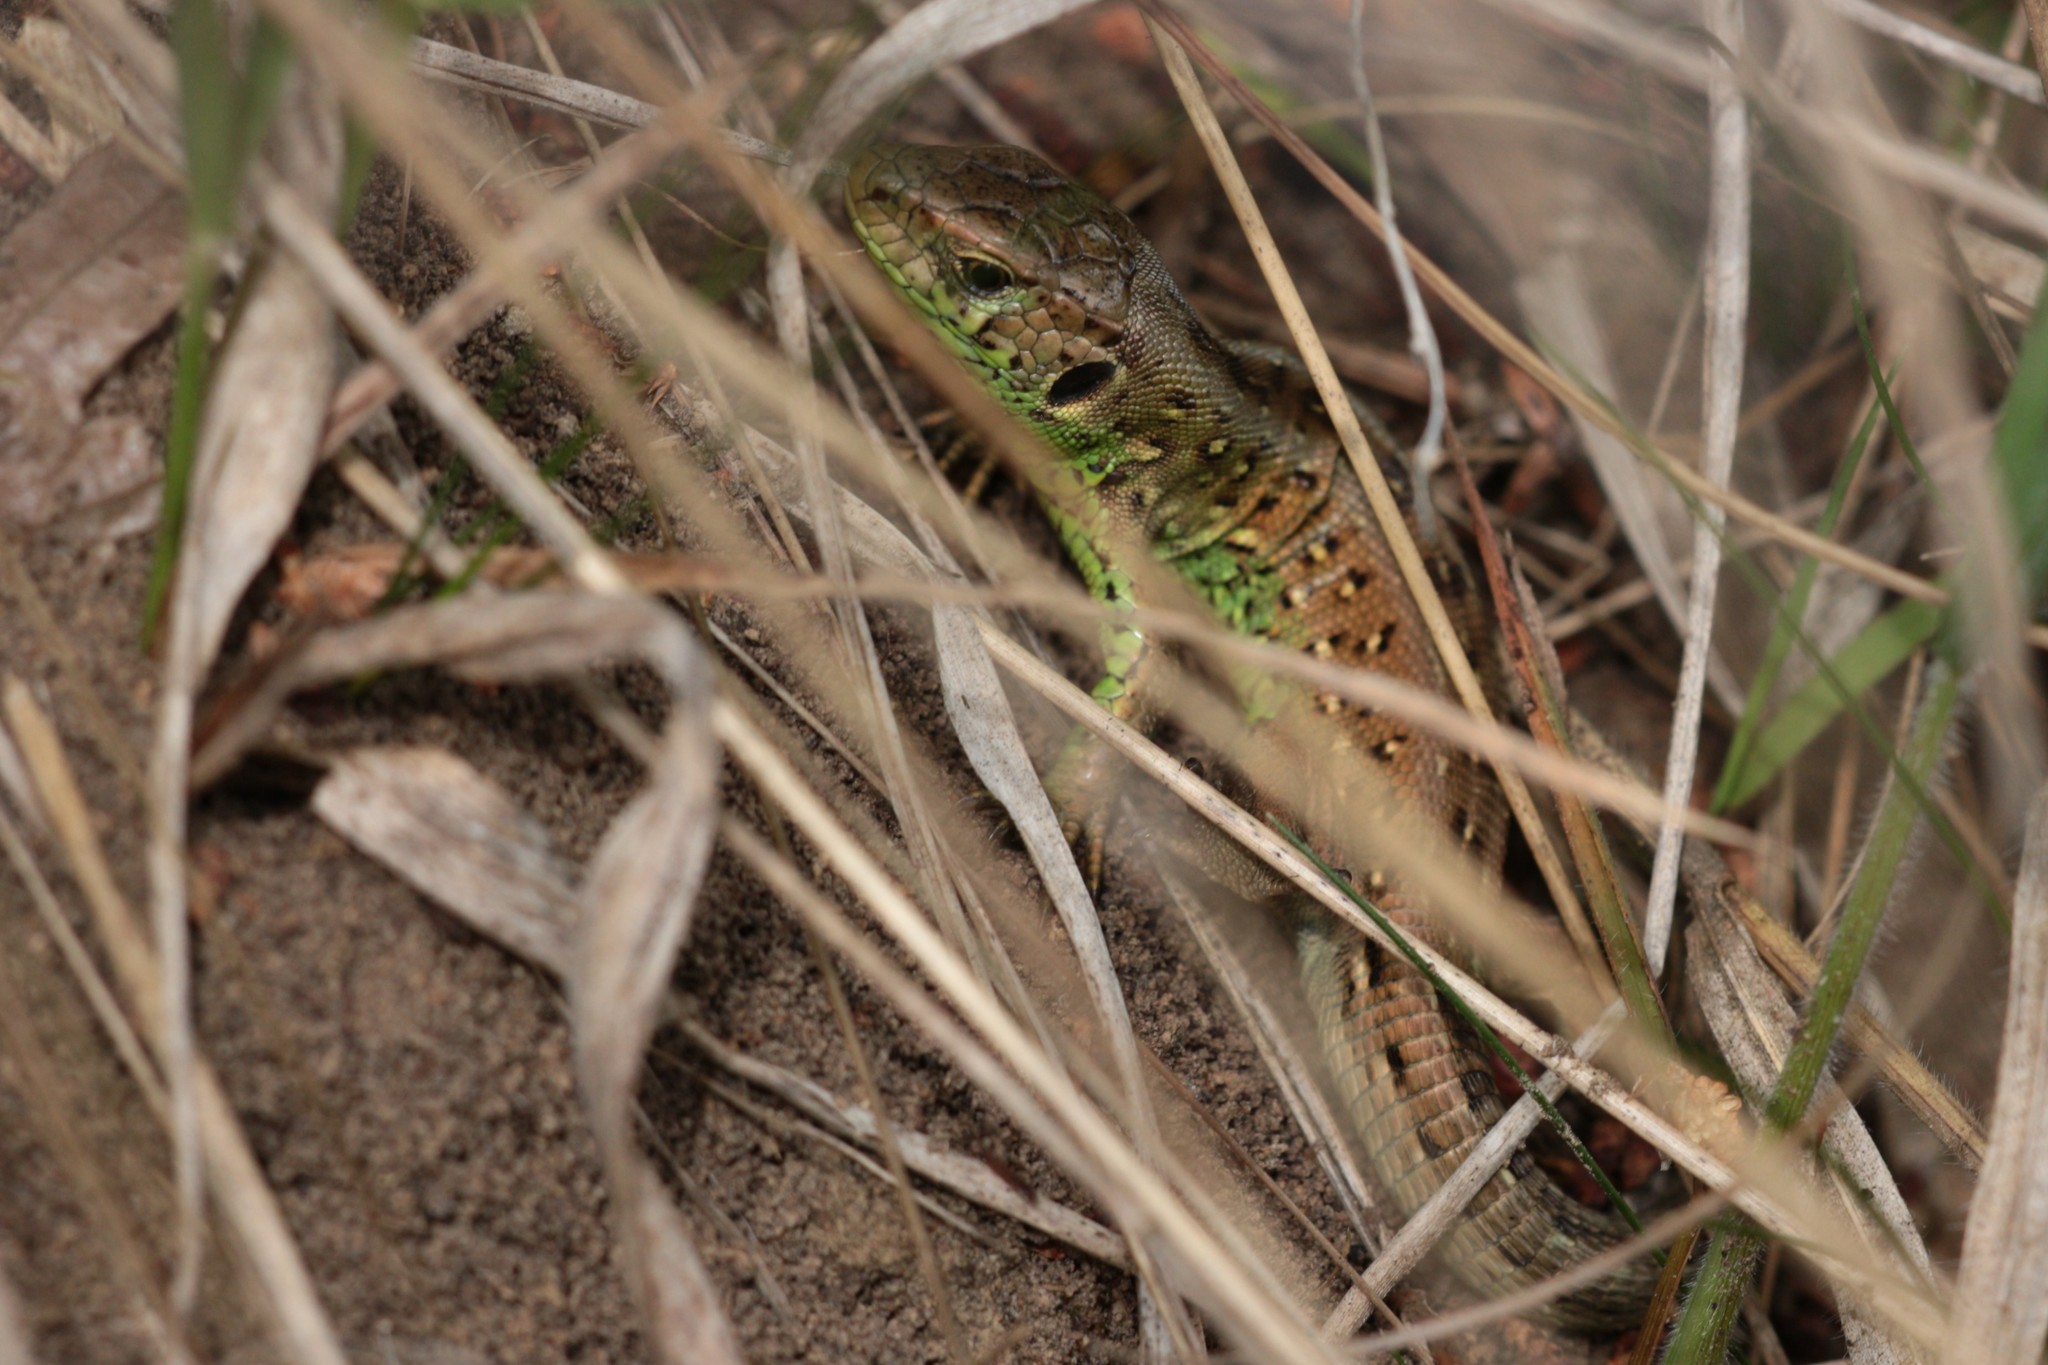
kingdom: Animalia
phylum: Chordata
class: Squamata
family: Lacertidae
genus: Lacerta
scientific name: Lacerta agilis
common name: Sand lizard
